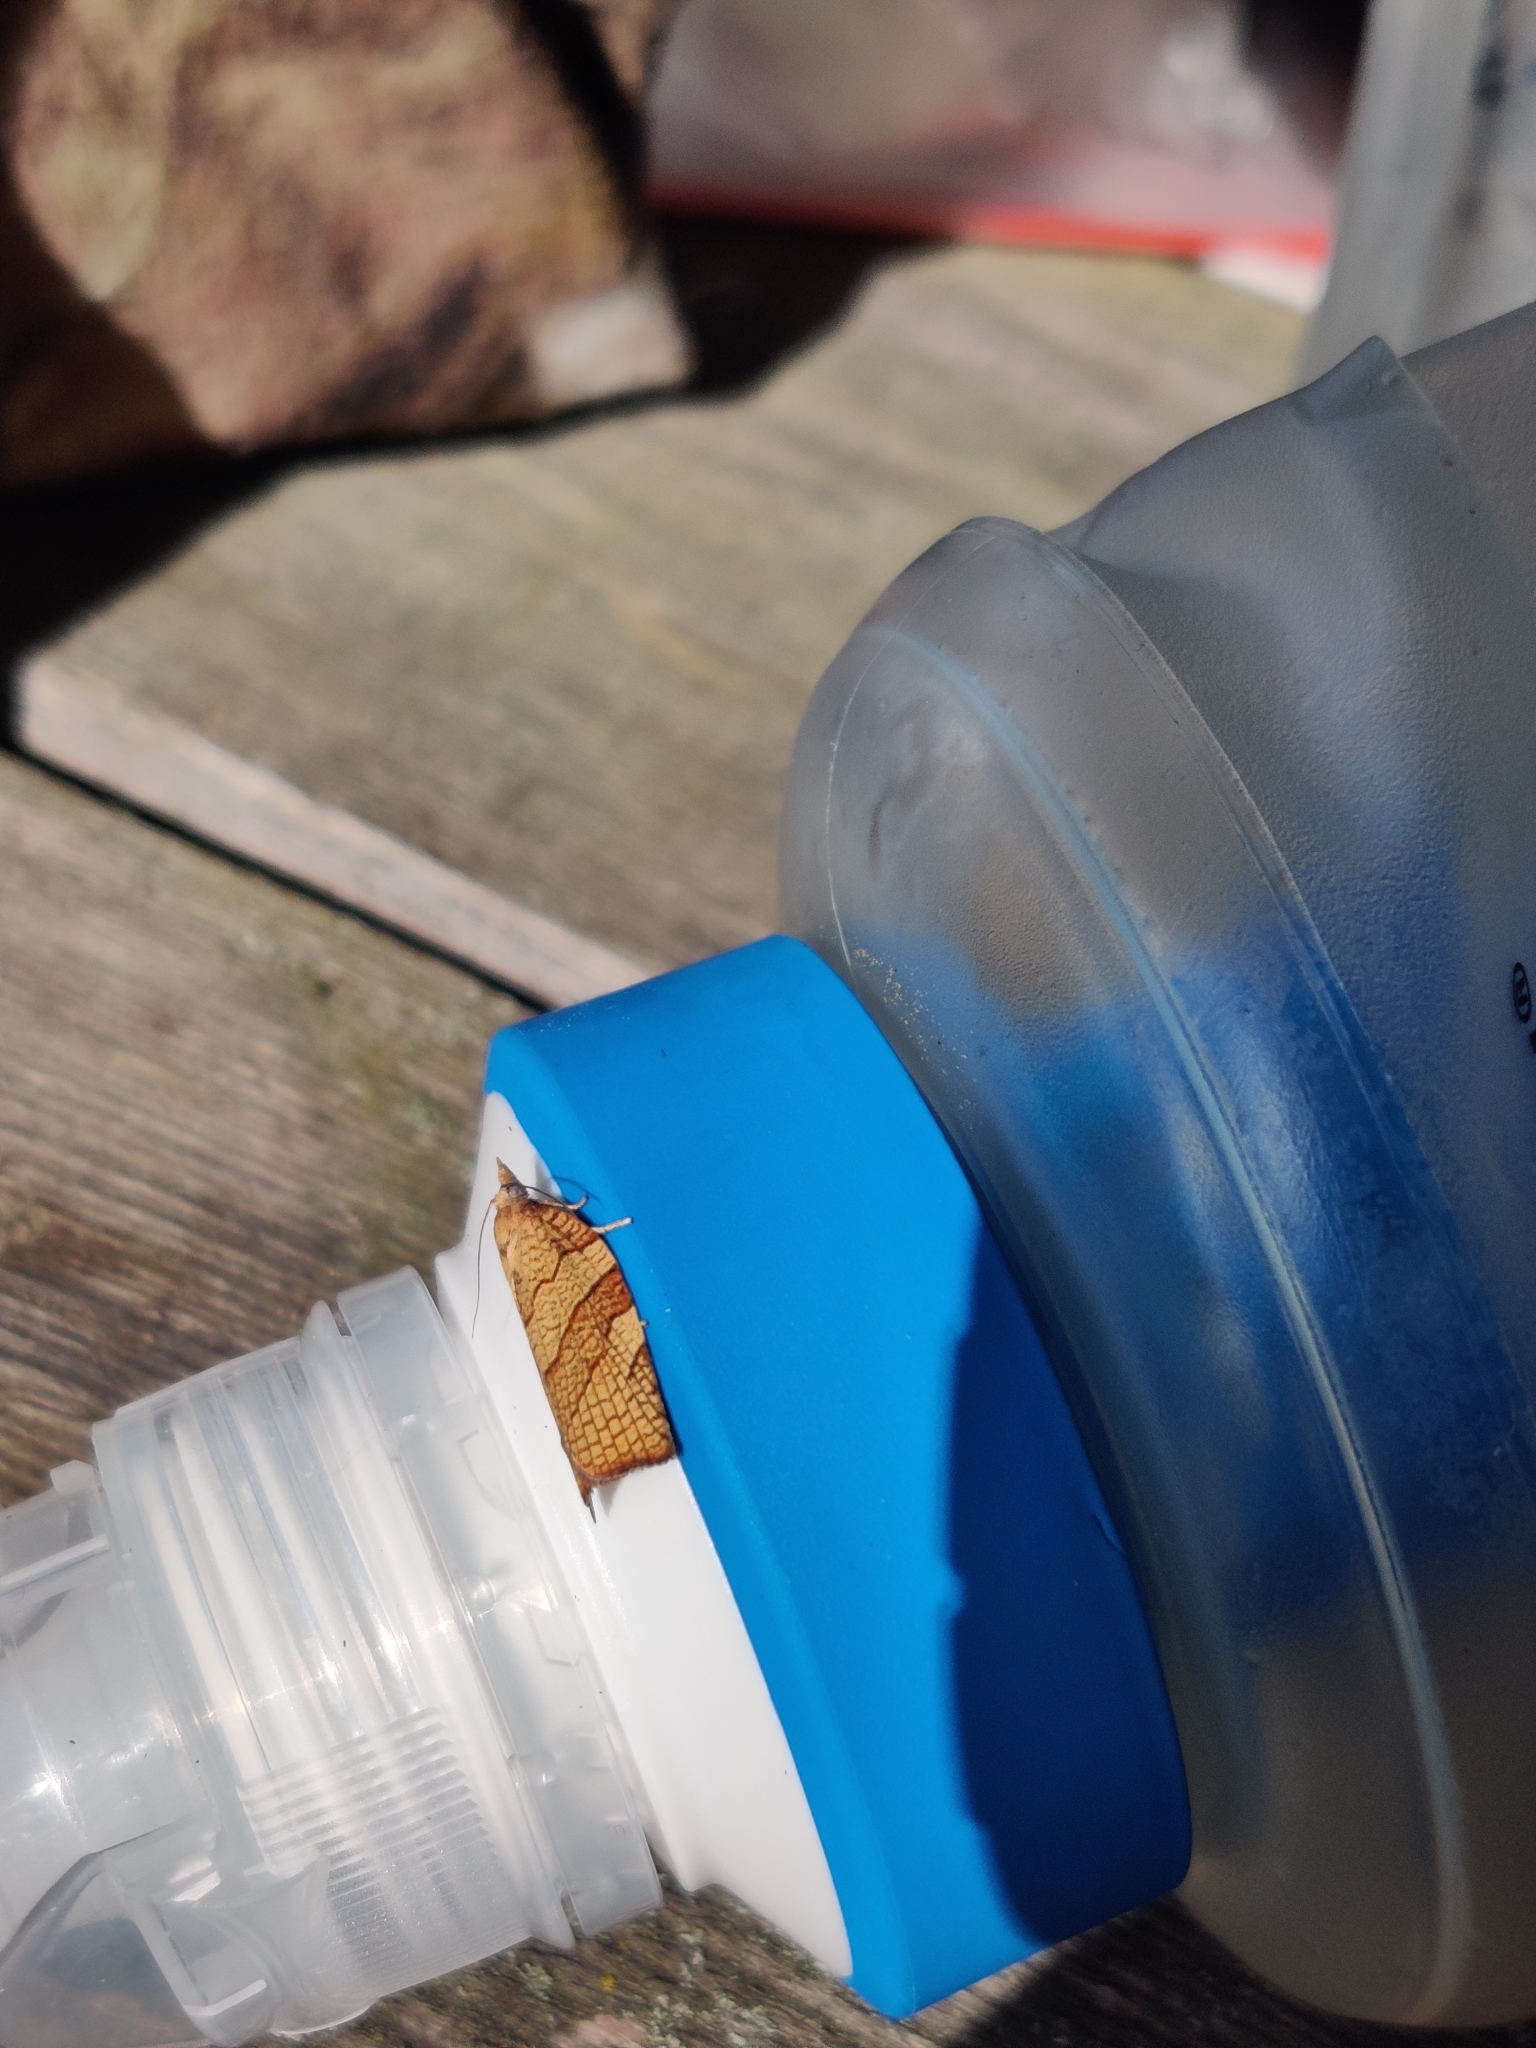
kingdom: Animalia
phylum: Arthropoda
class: Insecta
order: Lepidoptera
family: Tortricidae
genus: Pandemis
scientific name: Pandemis corylana
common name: Chequered fruit-tree tortrix
